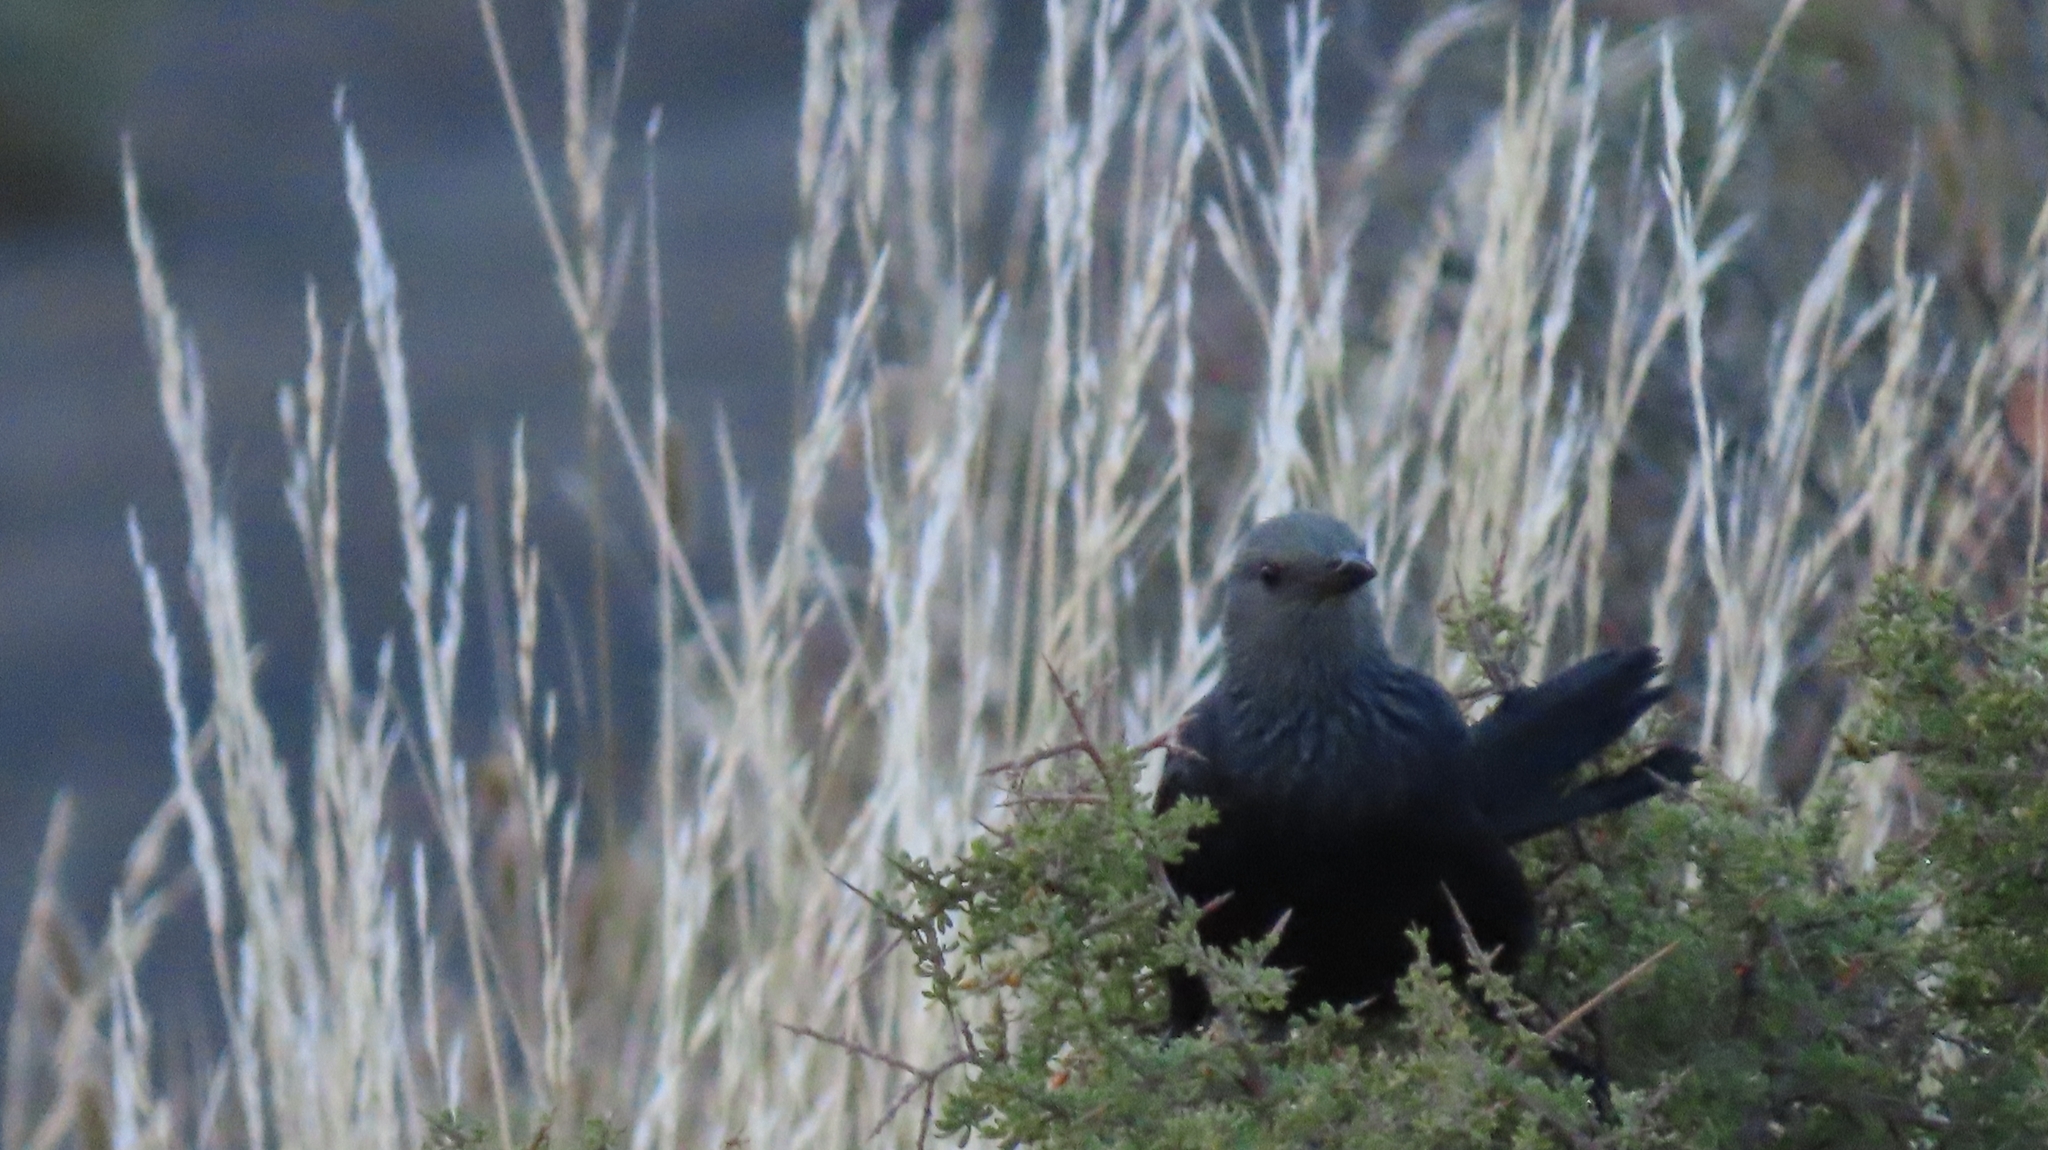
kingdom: Animalia
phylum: Chordata
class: Aves
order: Passeriformes
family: Sturnidae
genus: Onychognathus
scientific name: Onychognathus morio
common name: Red-winged starling
